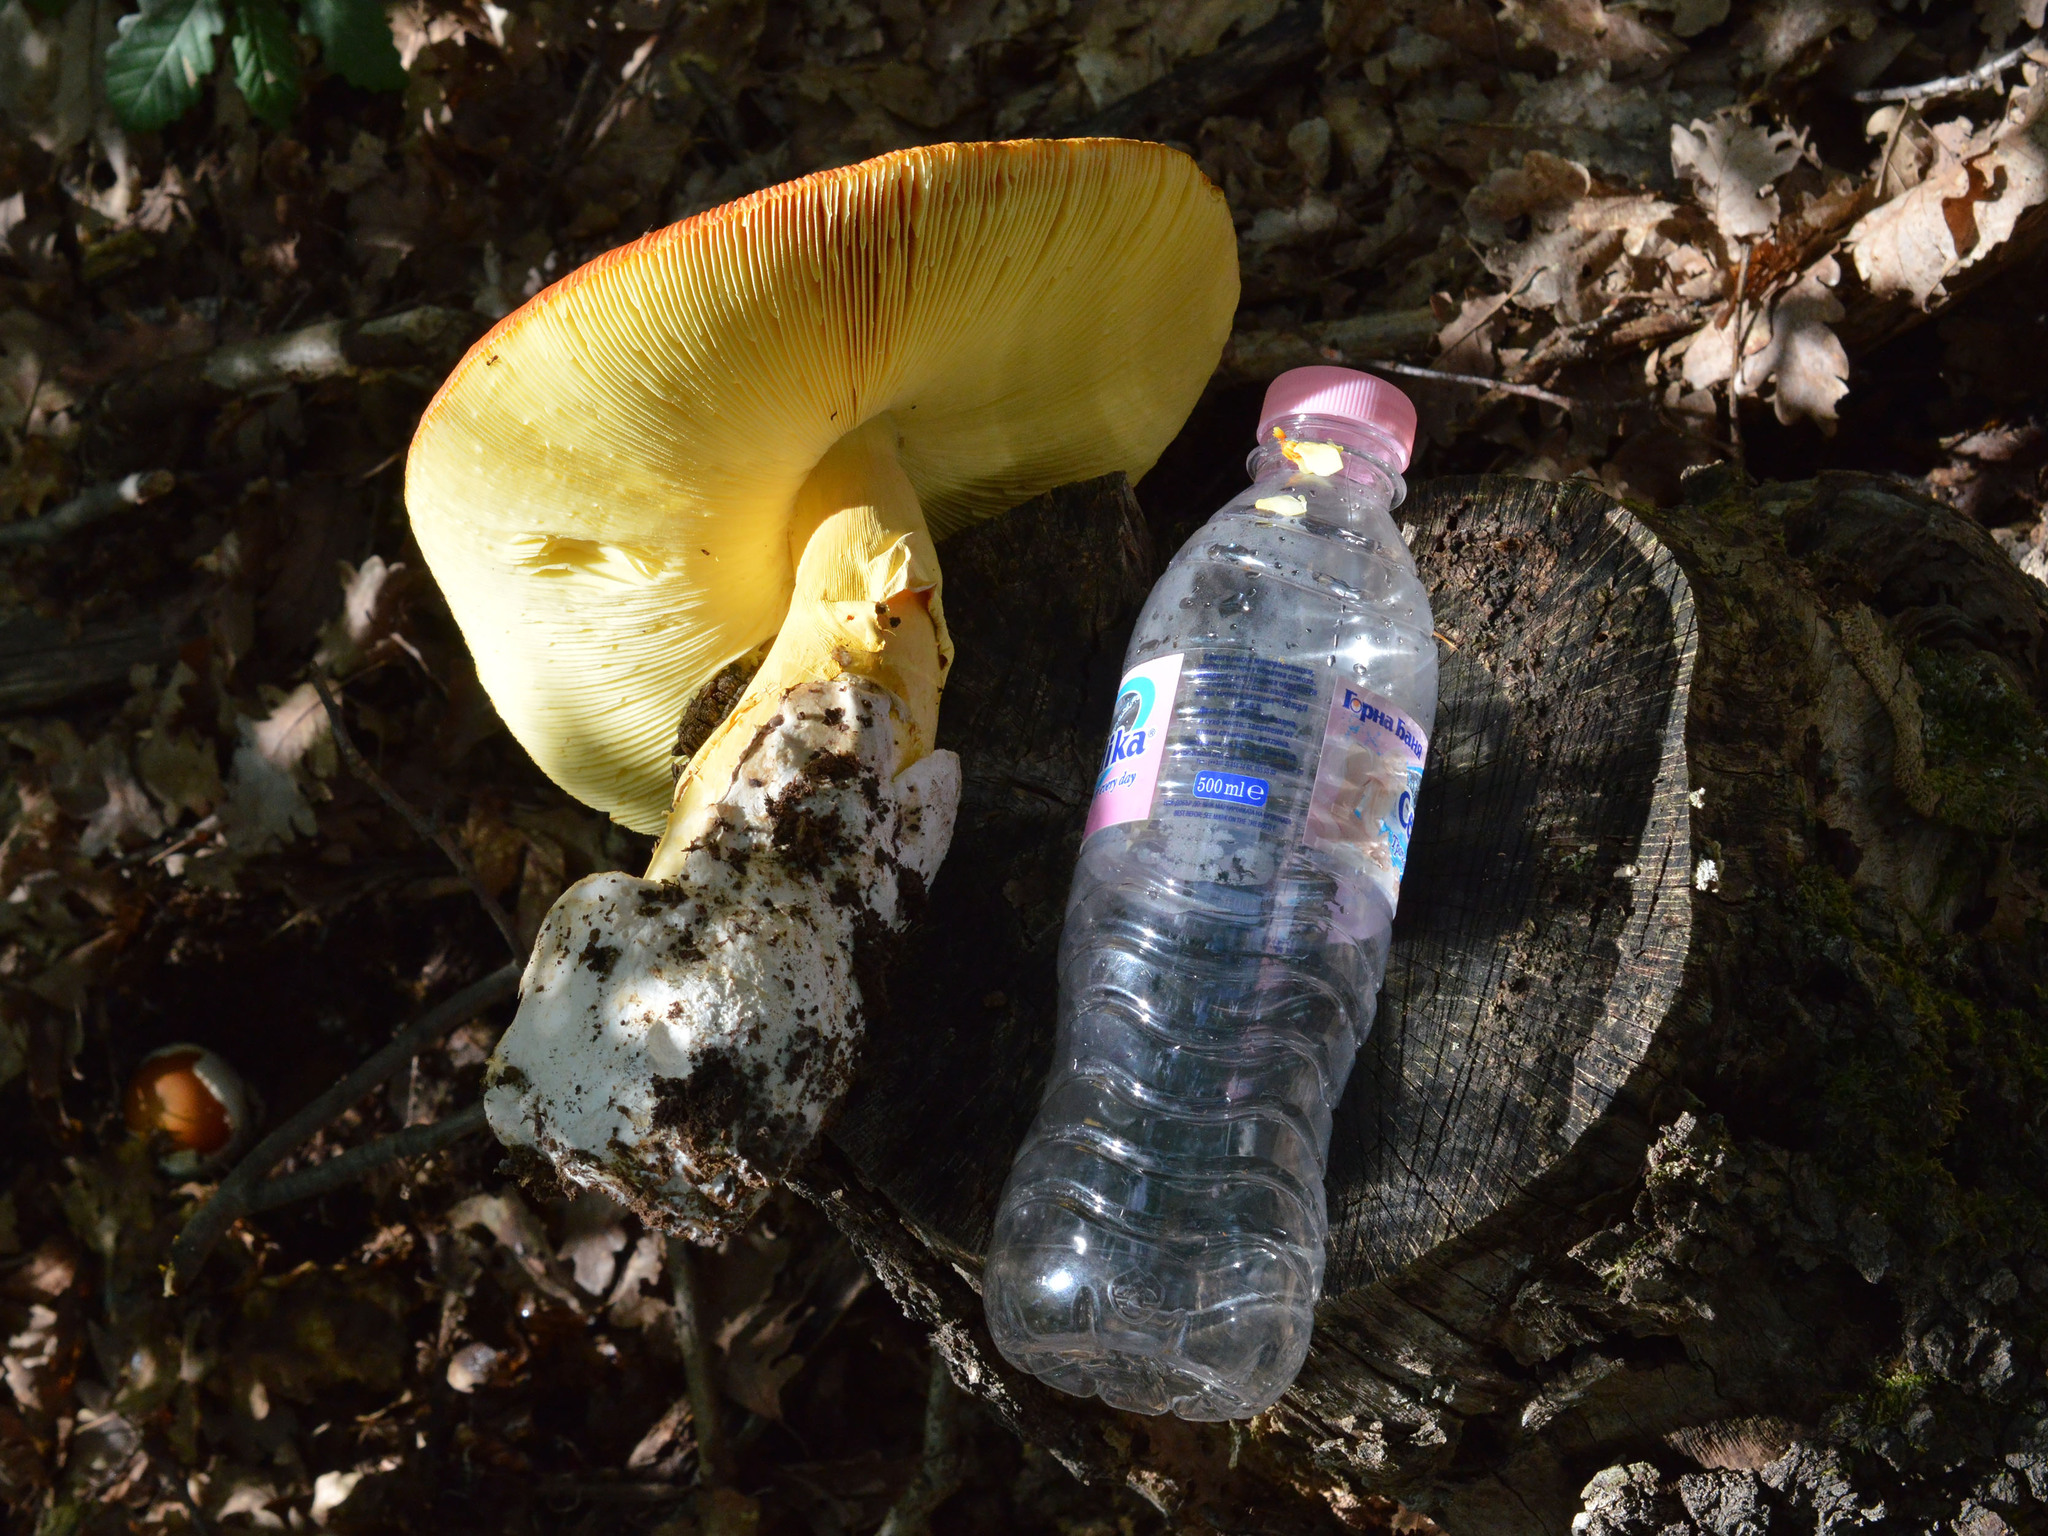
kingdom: Fungi
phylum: Basidiomycota
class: Agaricomycetes
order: Agaricales
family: Amanitaceae
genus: Amanita
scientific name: Amanita caesarea
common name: Caesar's amanita
